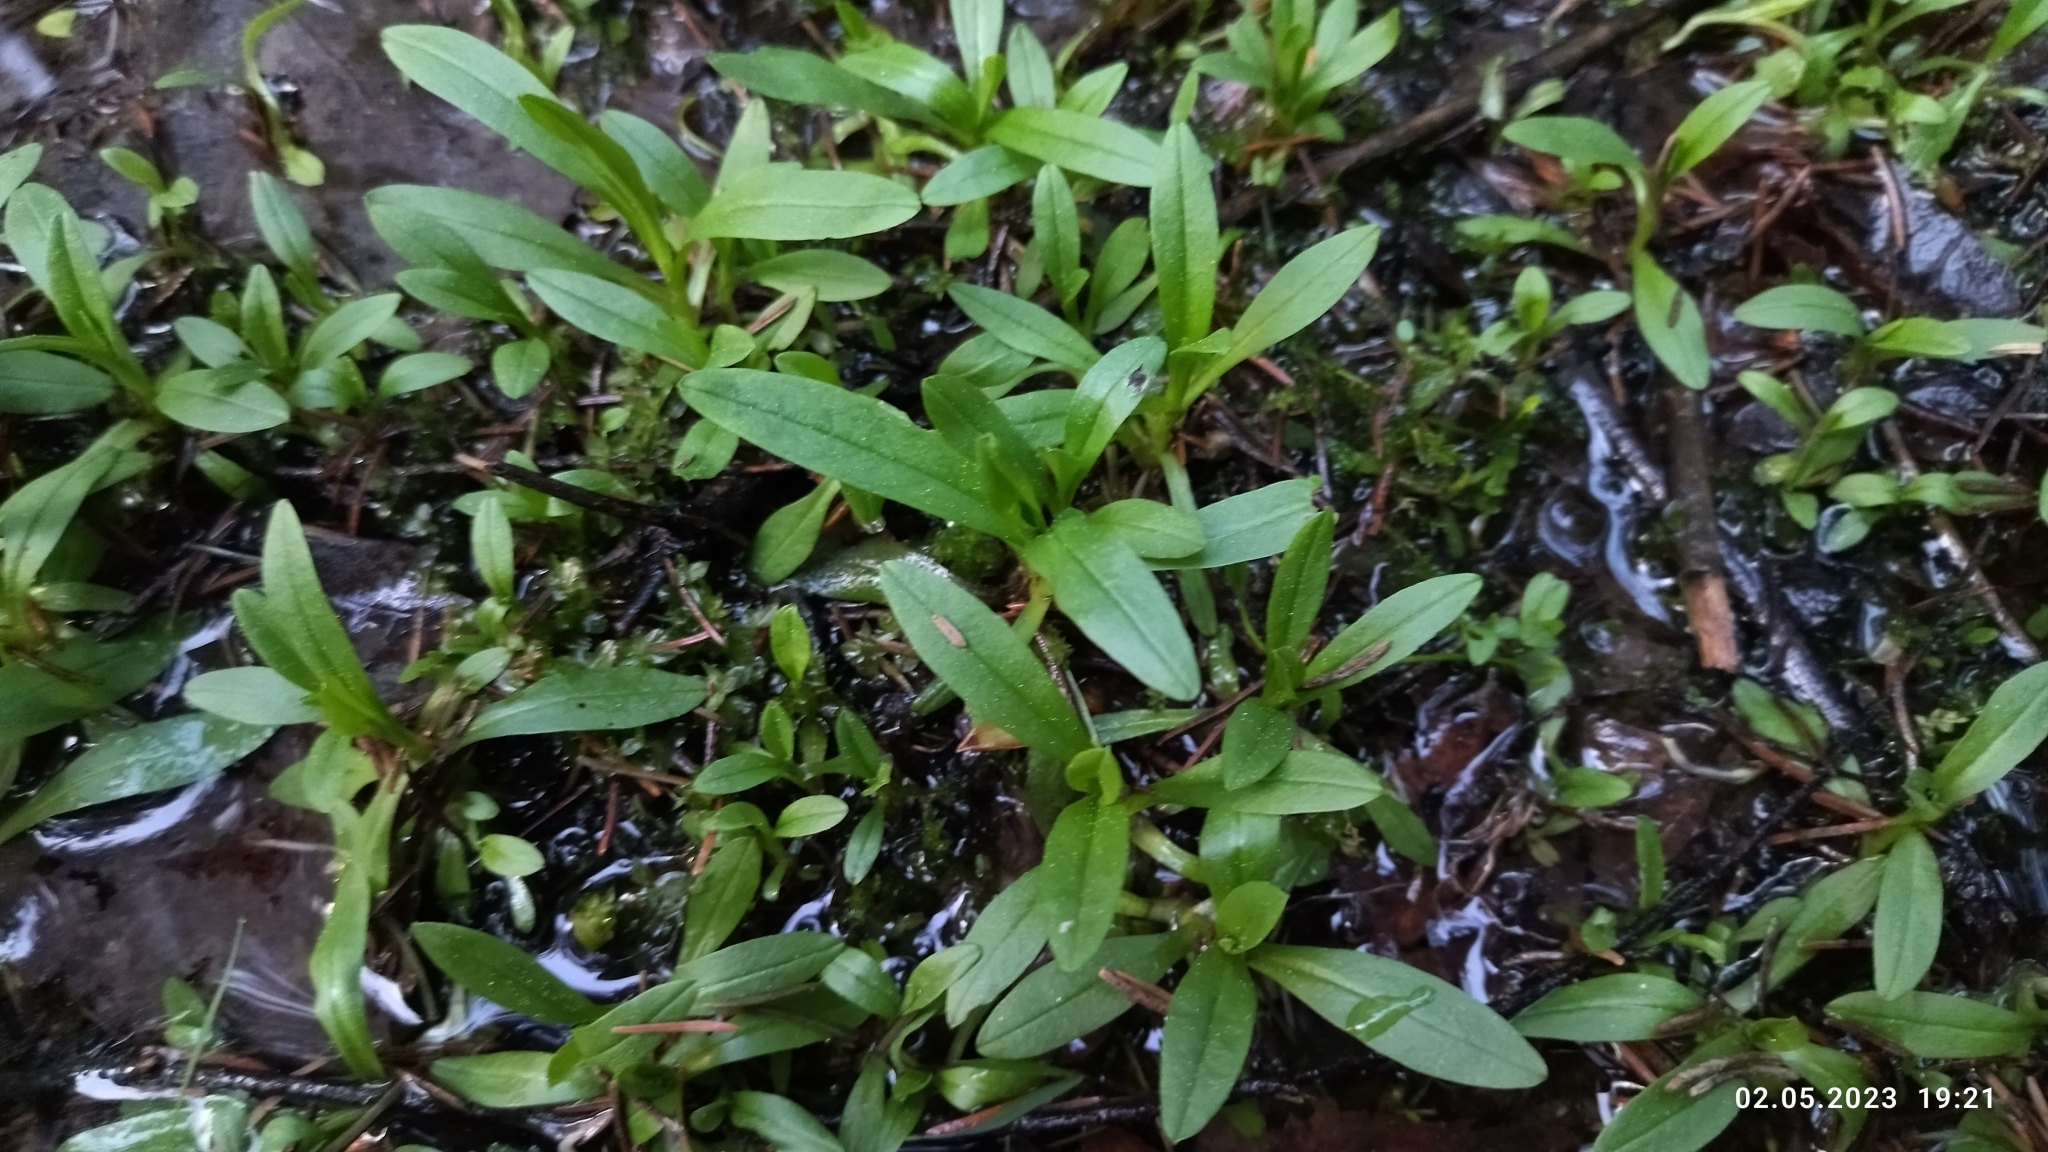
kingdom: Plantae
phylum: Tracheophyta
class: Magnoliopsida
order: Boraginales
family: Boraginaceae
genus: Myosotis
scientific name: Myosotis scorpioides
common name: Water forget-me-not
